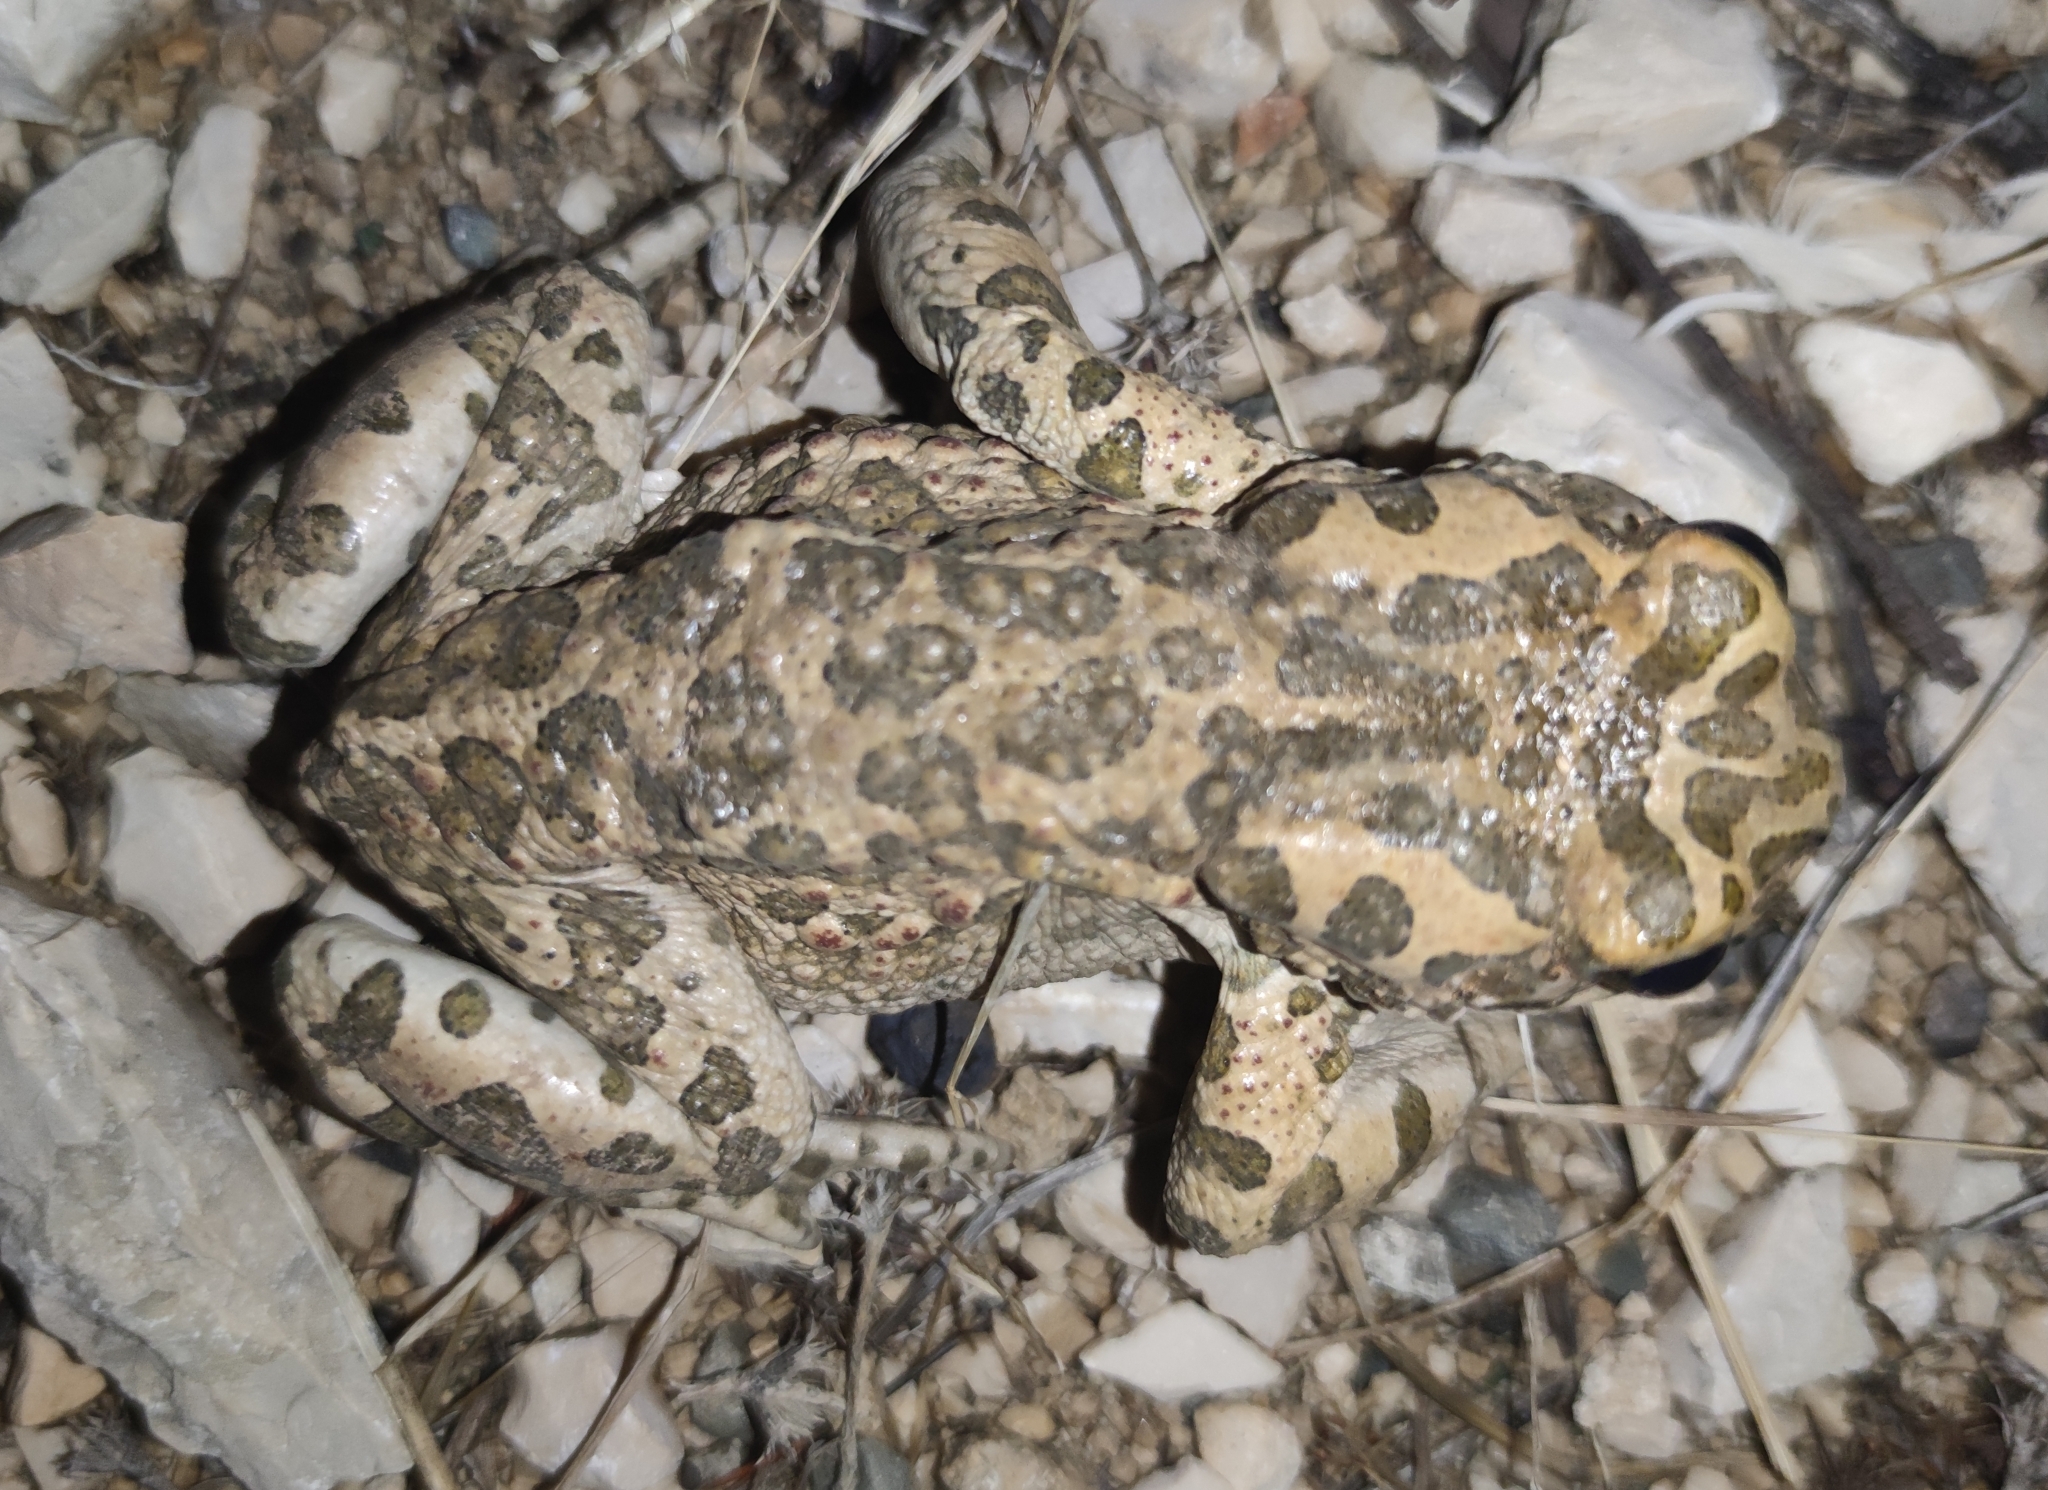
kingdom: Animalia
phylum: Chordata
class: Amphibia
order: Anura
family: Bufonidae
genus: Bufotes
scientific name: Bufotes viridis
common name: European green toad
